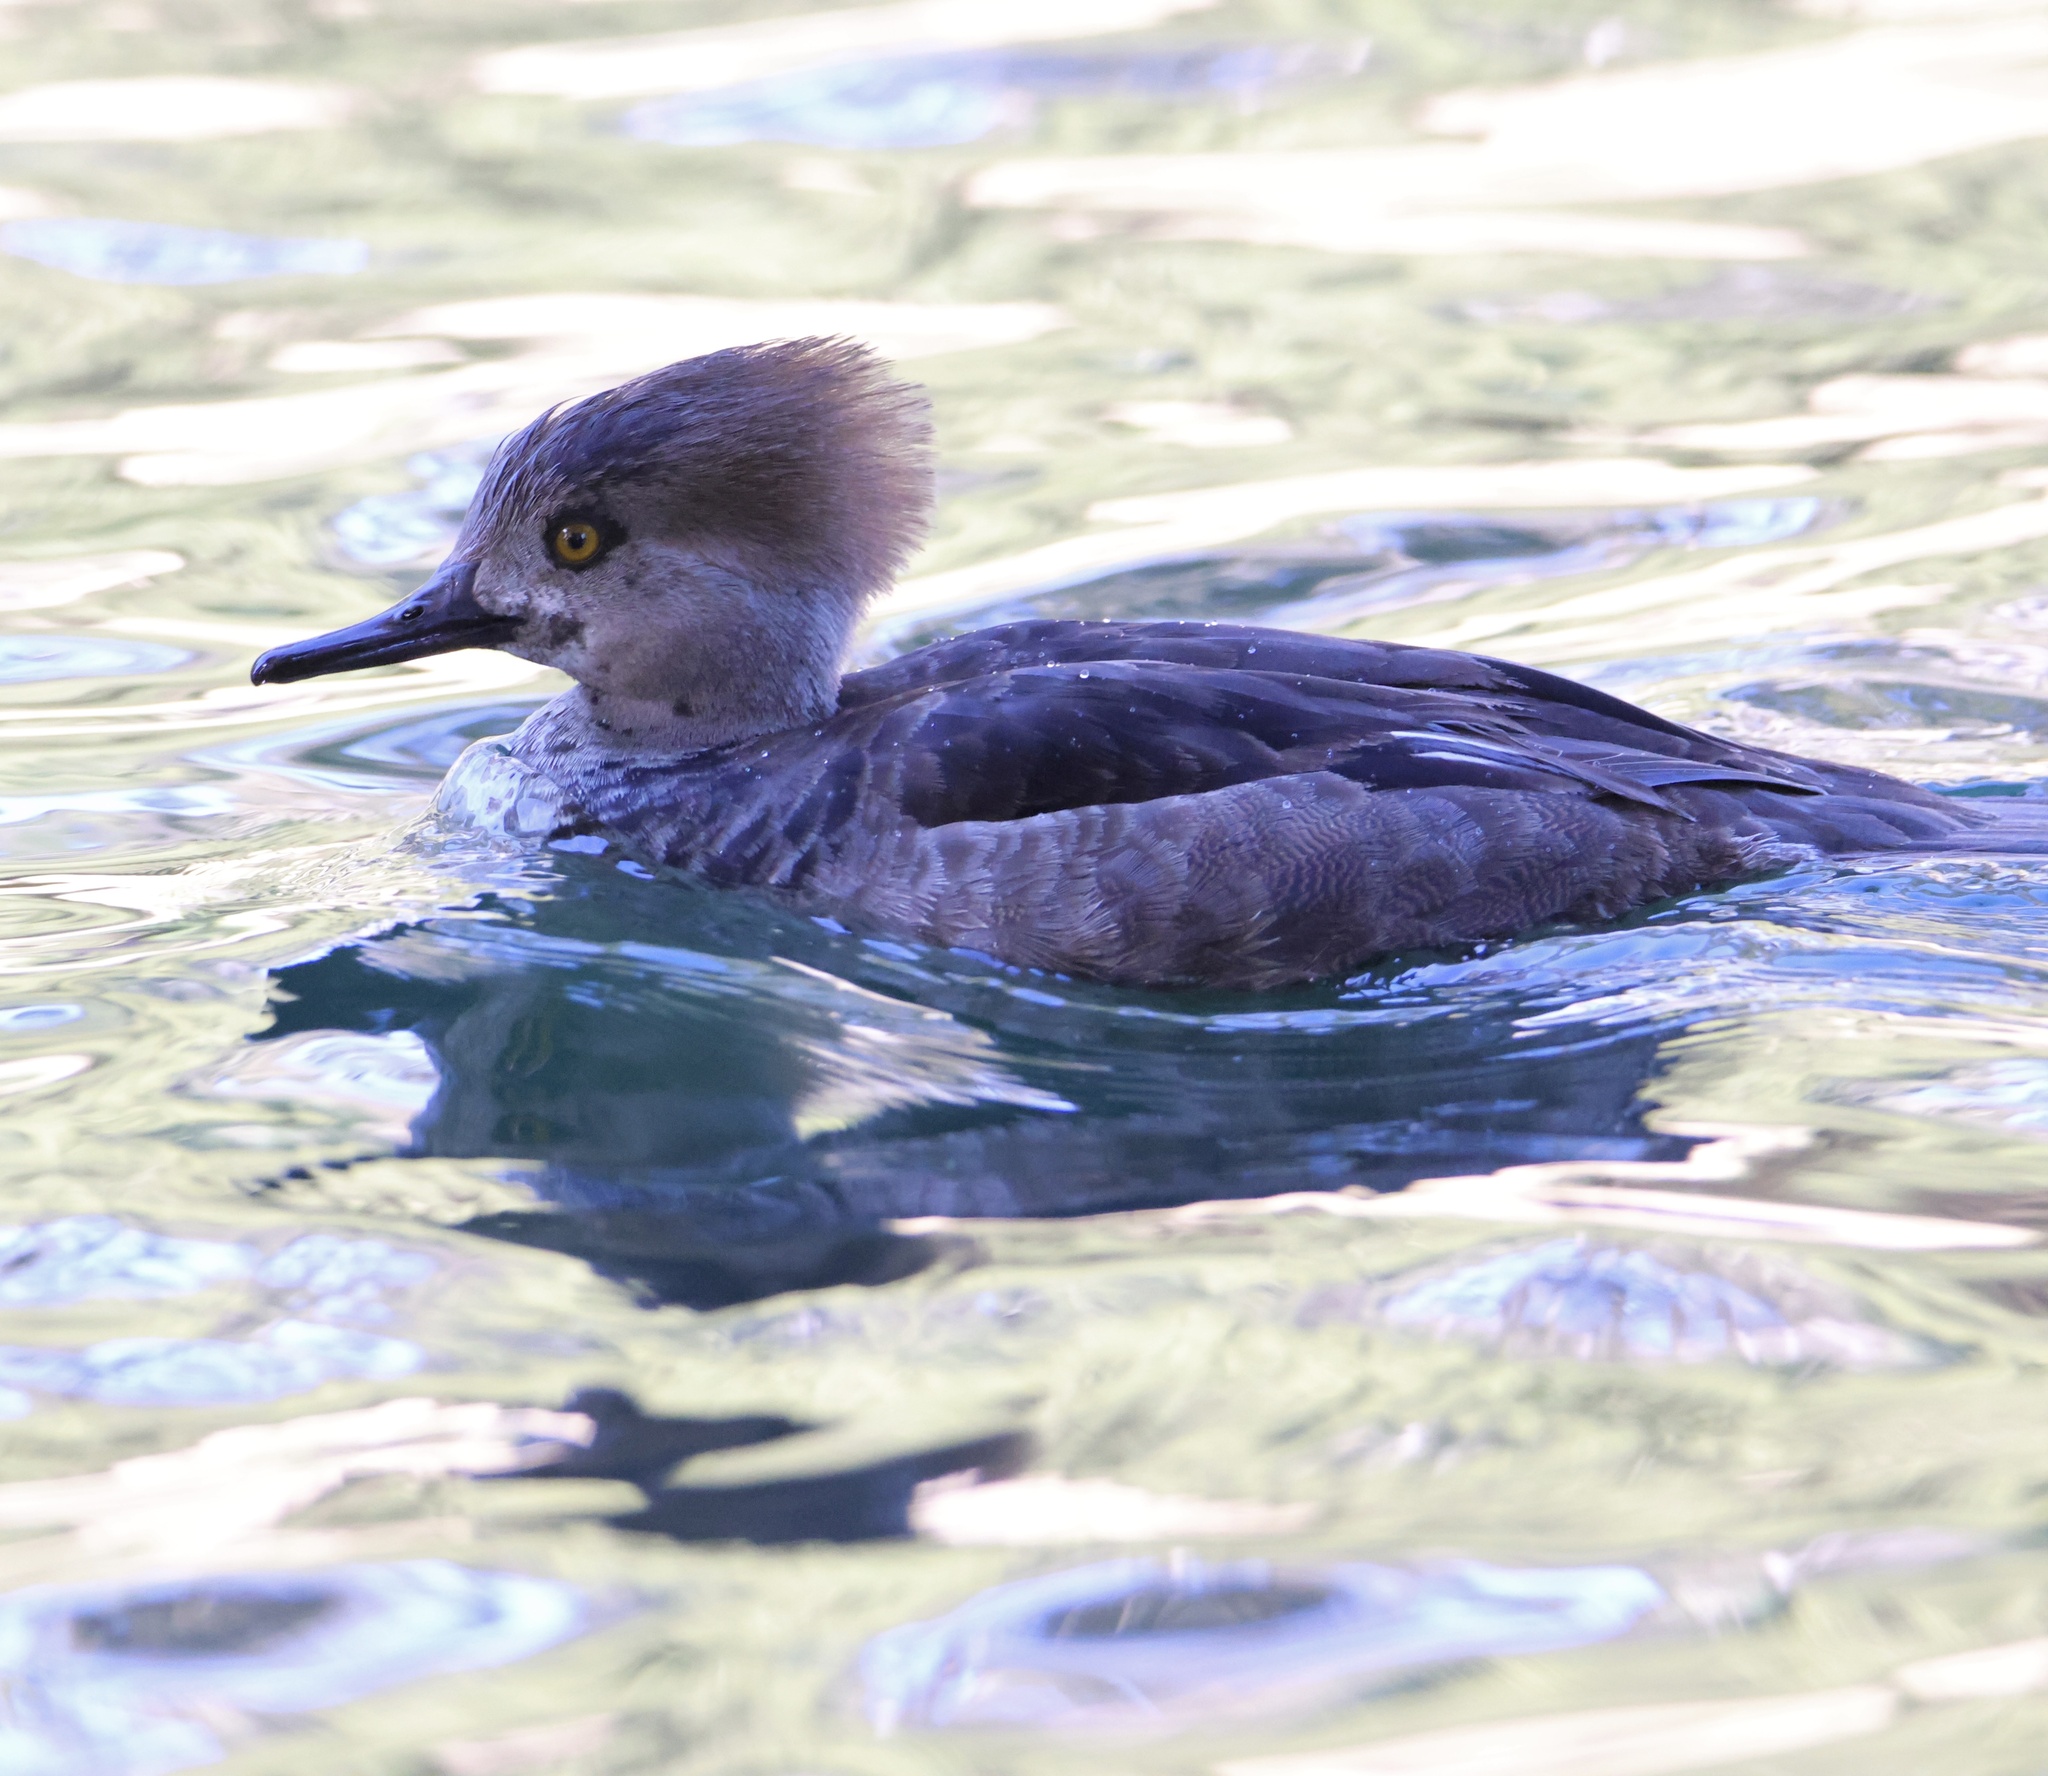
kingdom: Animalia
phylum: Chordata
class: Aves
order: Anseriformes
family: Anatidae
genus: Lophodytes
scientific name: Lophodytes cucullatus
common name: Hooded merganser
